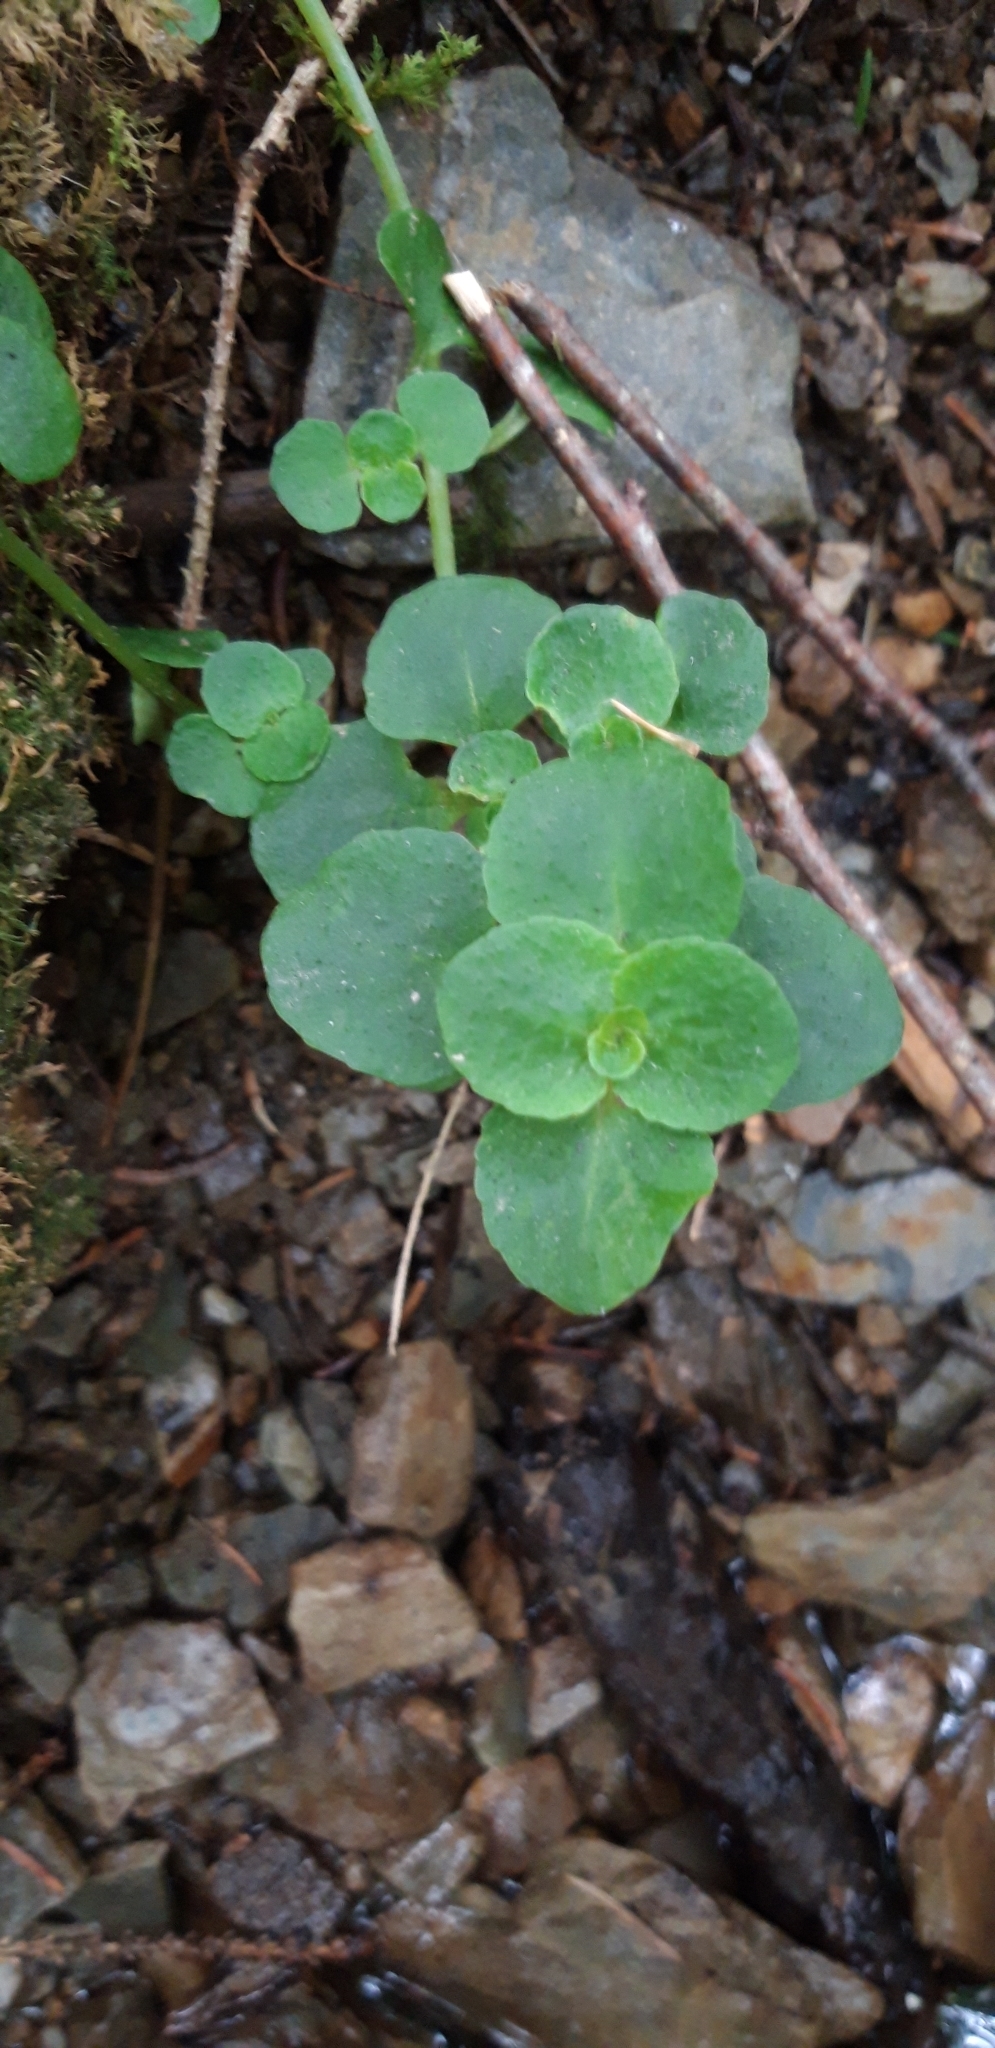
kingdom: Plantae
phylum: Tracheophyta
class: Magnoliopsida
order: Saxifragales
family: Saxifragaceae
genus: Chrysosplenium
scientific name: Chrysosplenium
